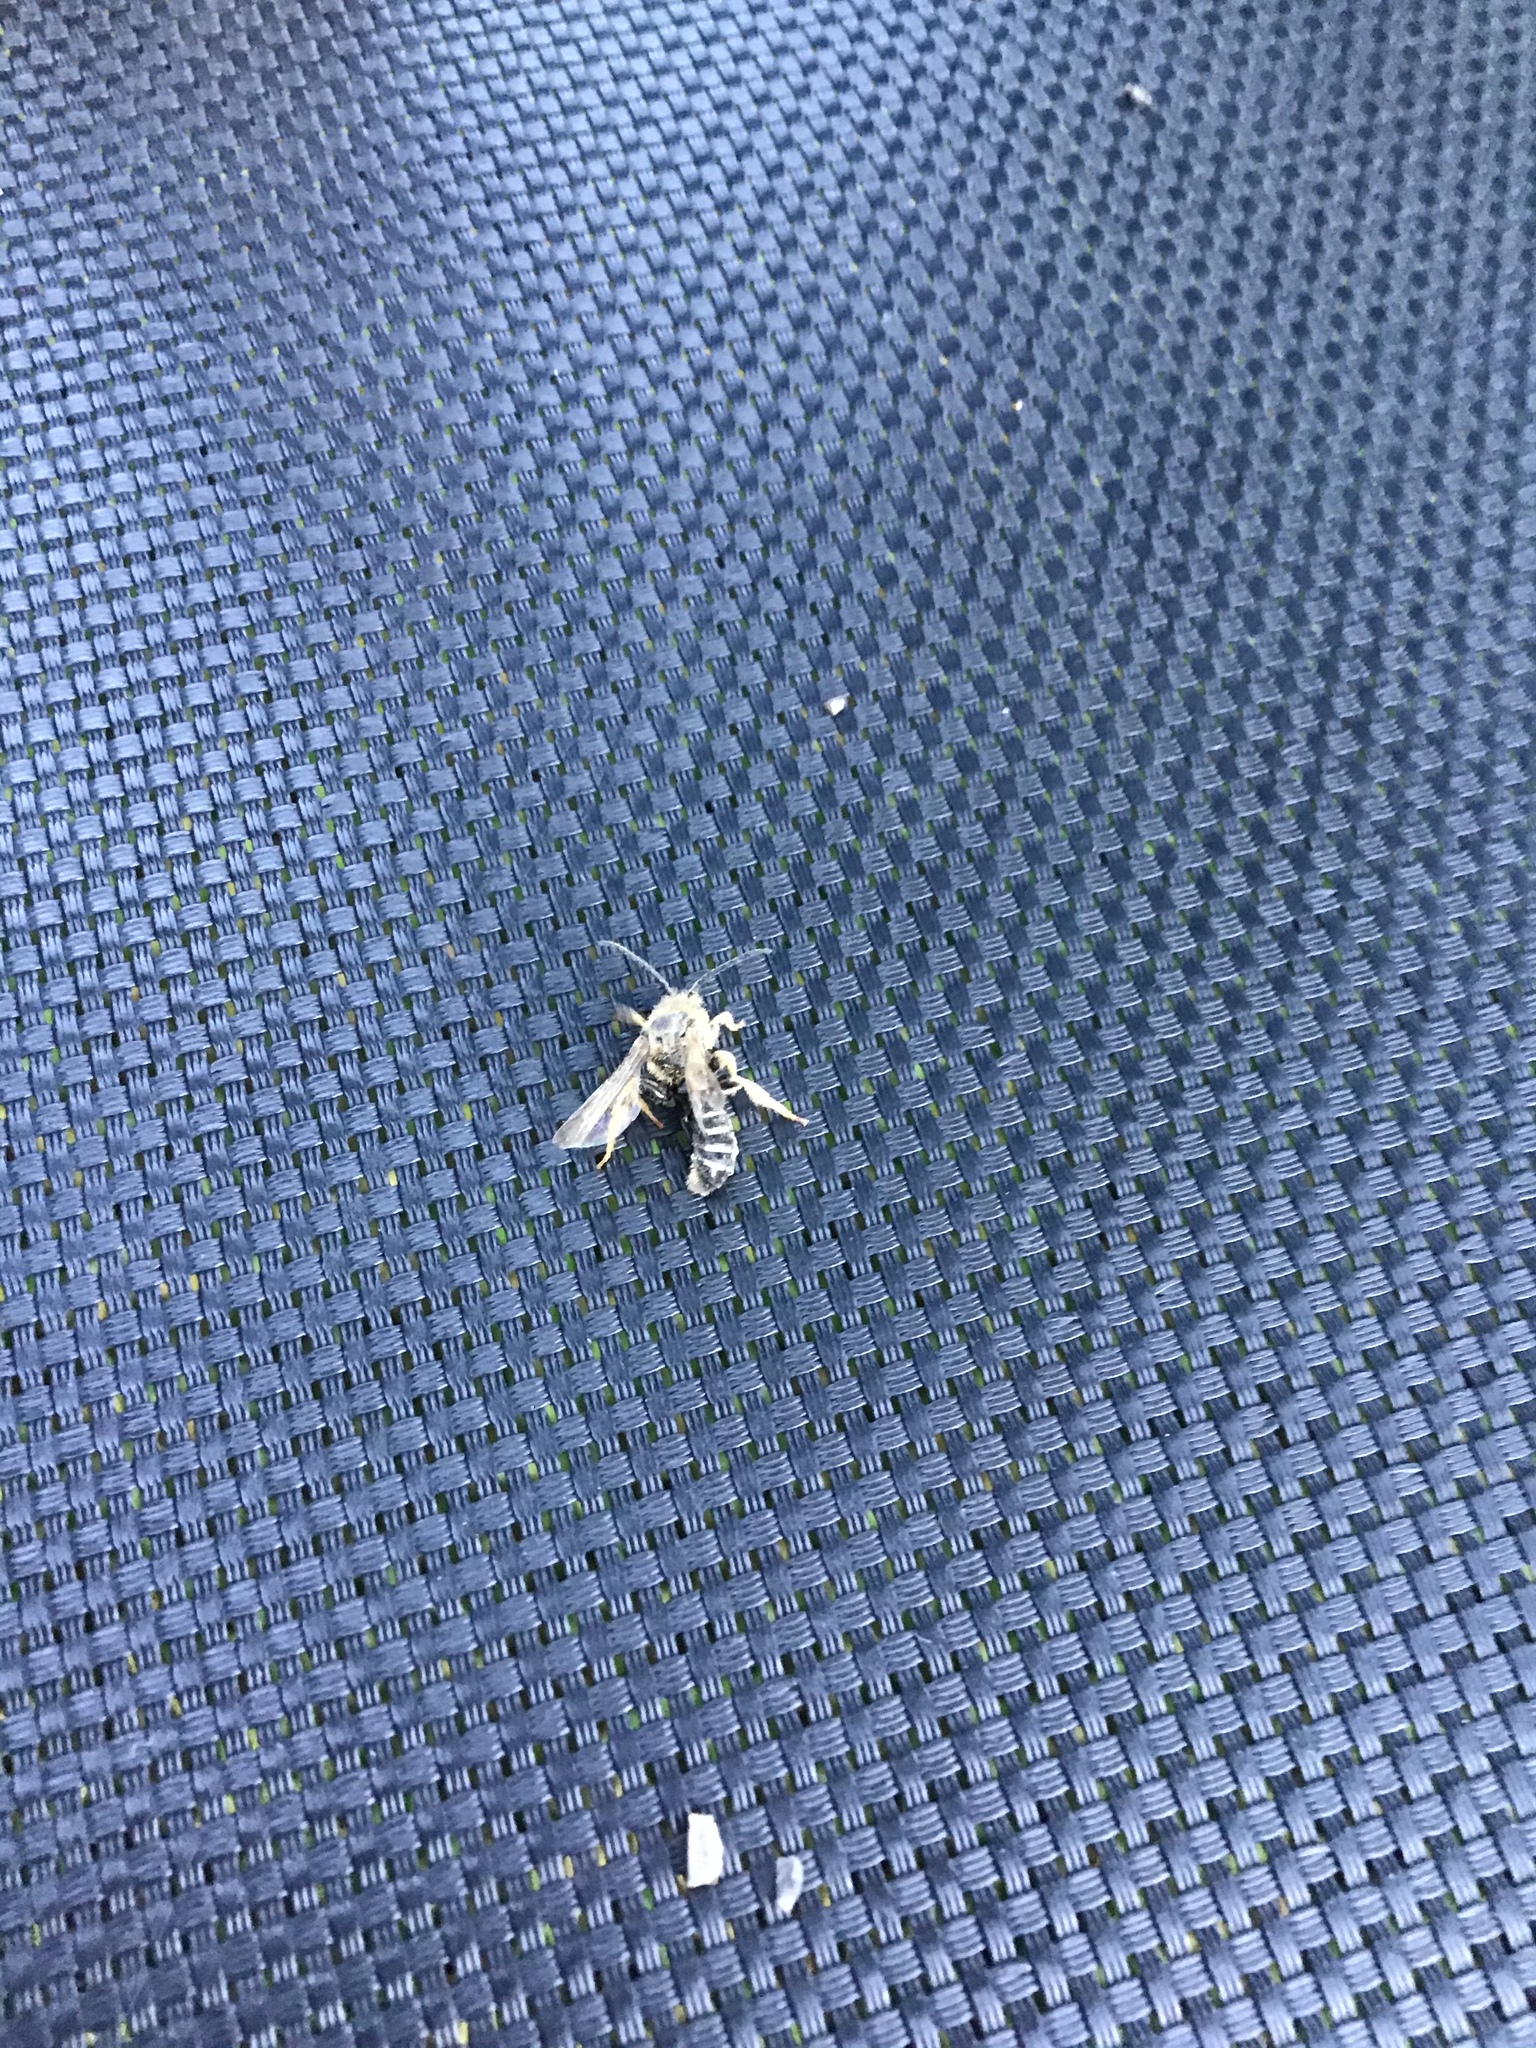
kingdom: Animalia
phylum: Arthropoda
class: Insecta
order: Hymenoptera
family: Halictidae
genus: Halictus
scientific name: Halictus rubicundus
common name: Orange-legged furrow bee
